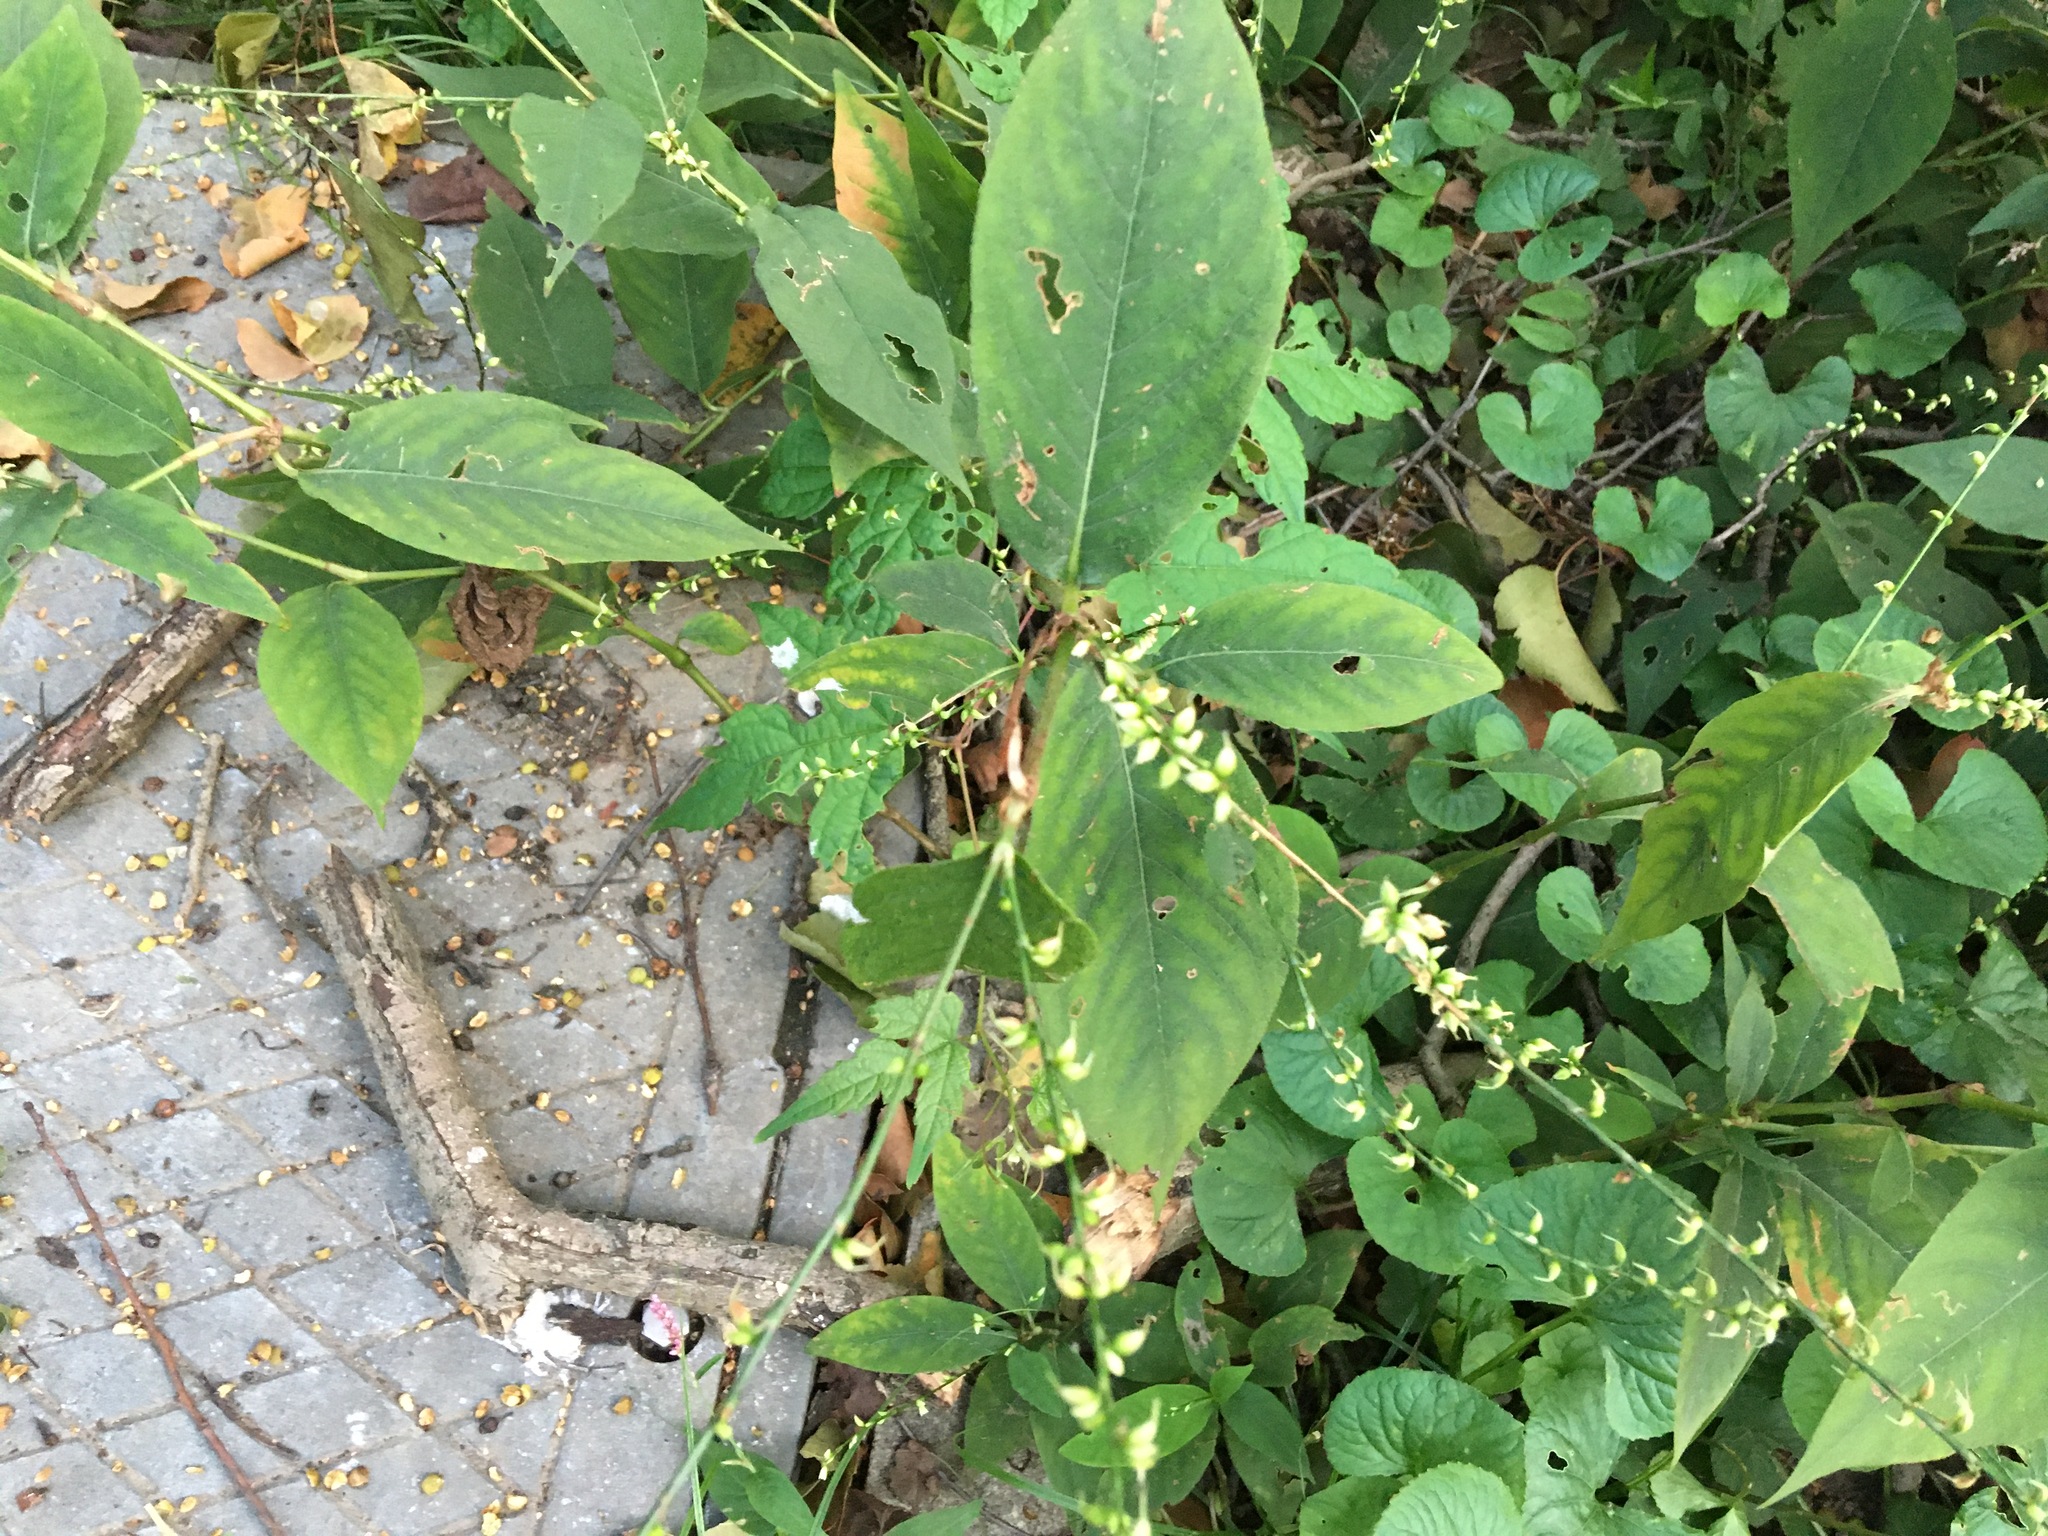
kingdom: Plantae
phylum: Tracheophyta
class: Magnoliopsida
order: Caryophyllales
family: Polygonaceae
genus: Persicaria
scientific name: Persicaria virginiana
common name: Jumpseed
